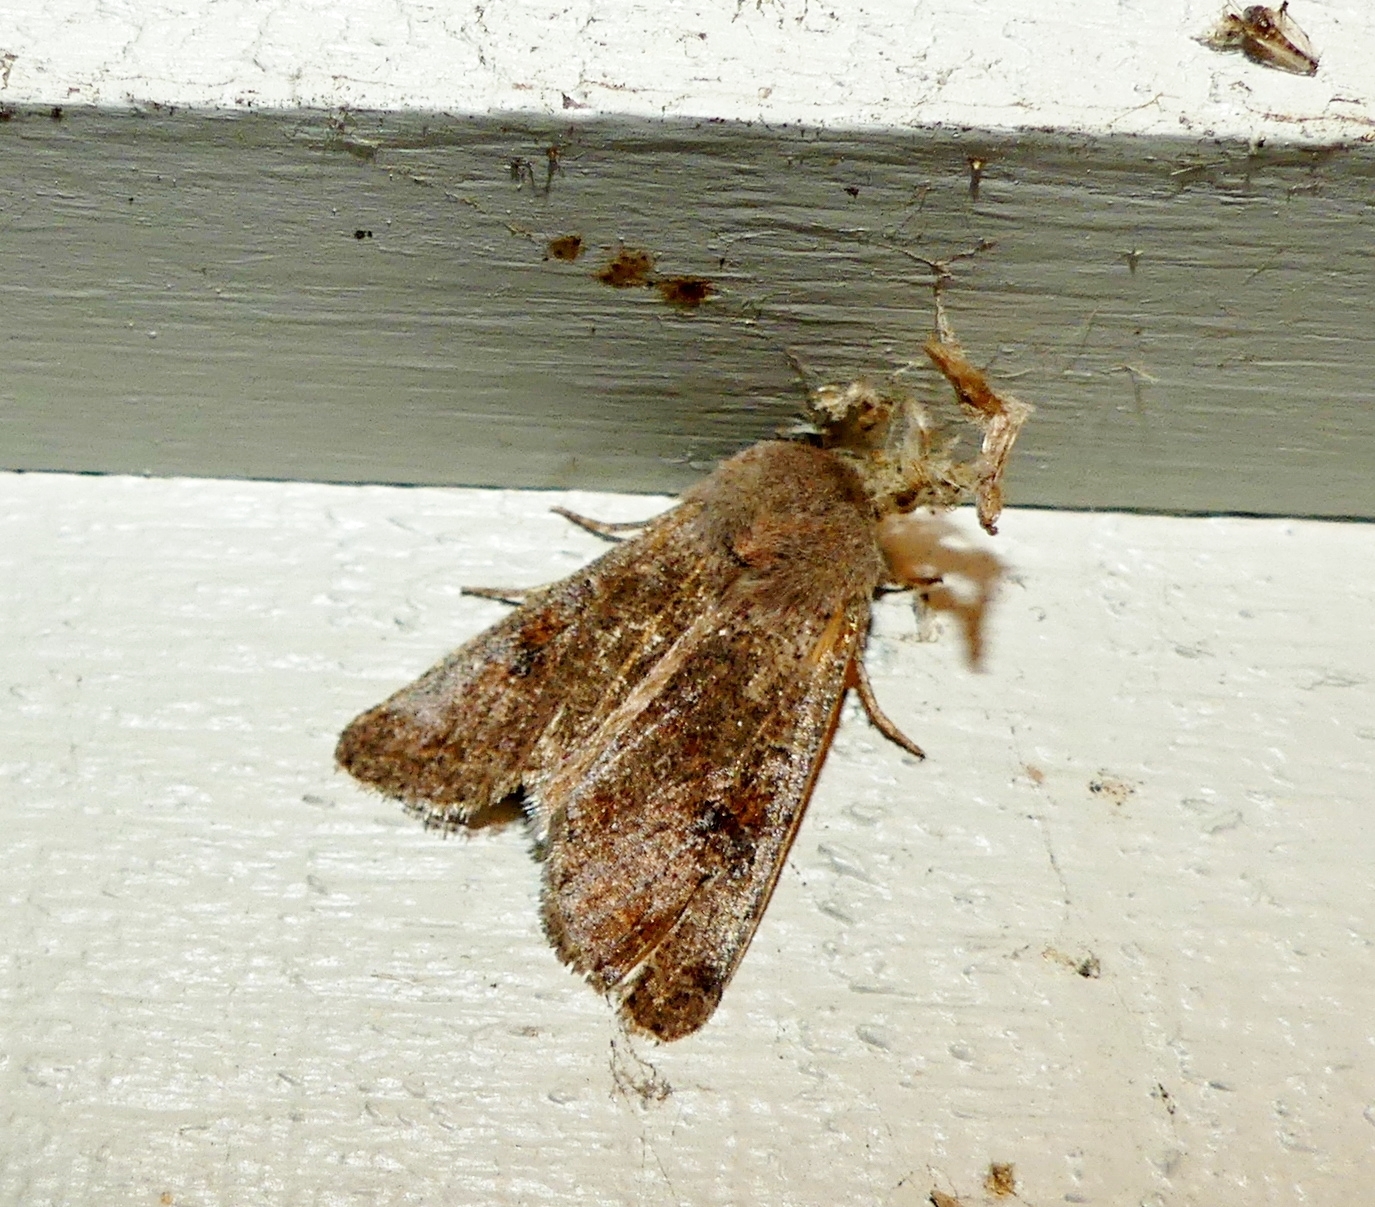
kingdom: Animalia
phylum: Arthropoda
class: Insecta
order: Lepidoptera
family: Noctuidae
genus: Orthosia
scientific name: Orthosia hibisci
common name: Green fruitworm
